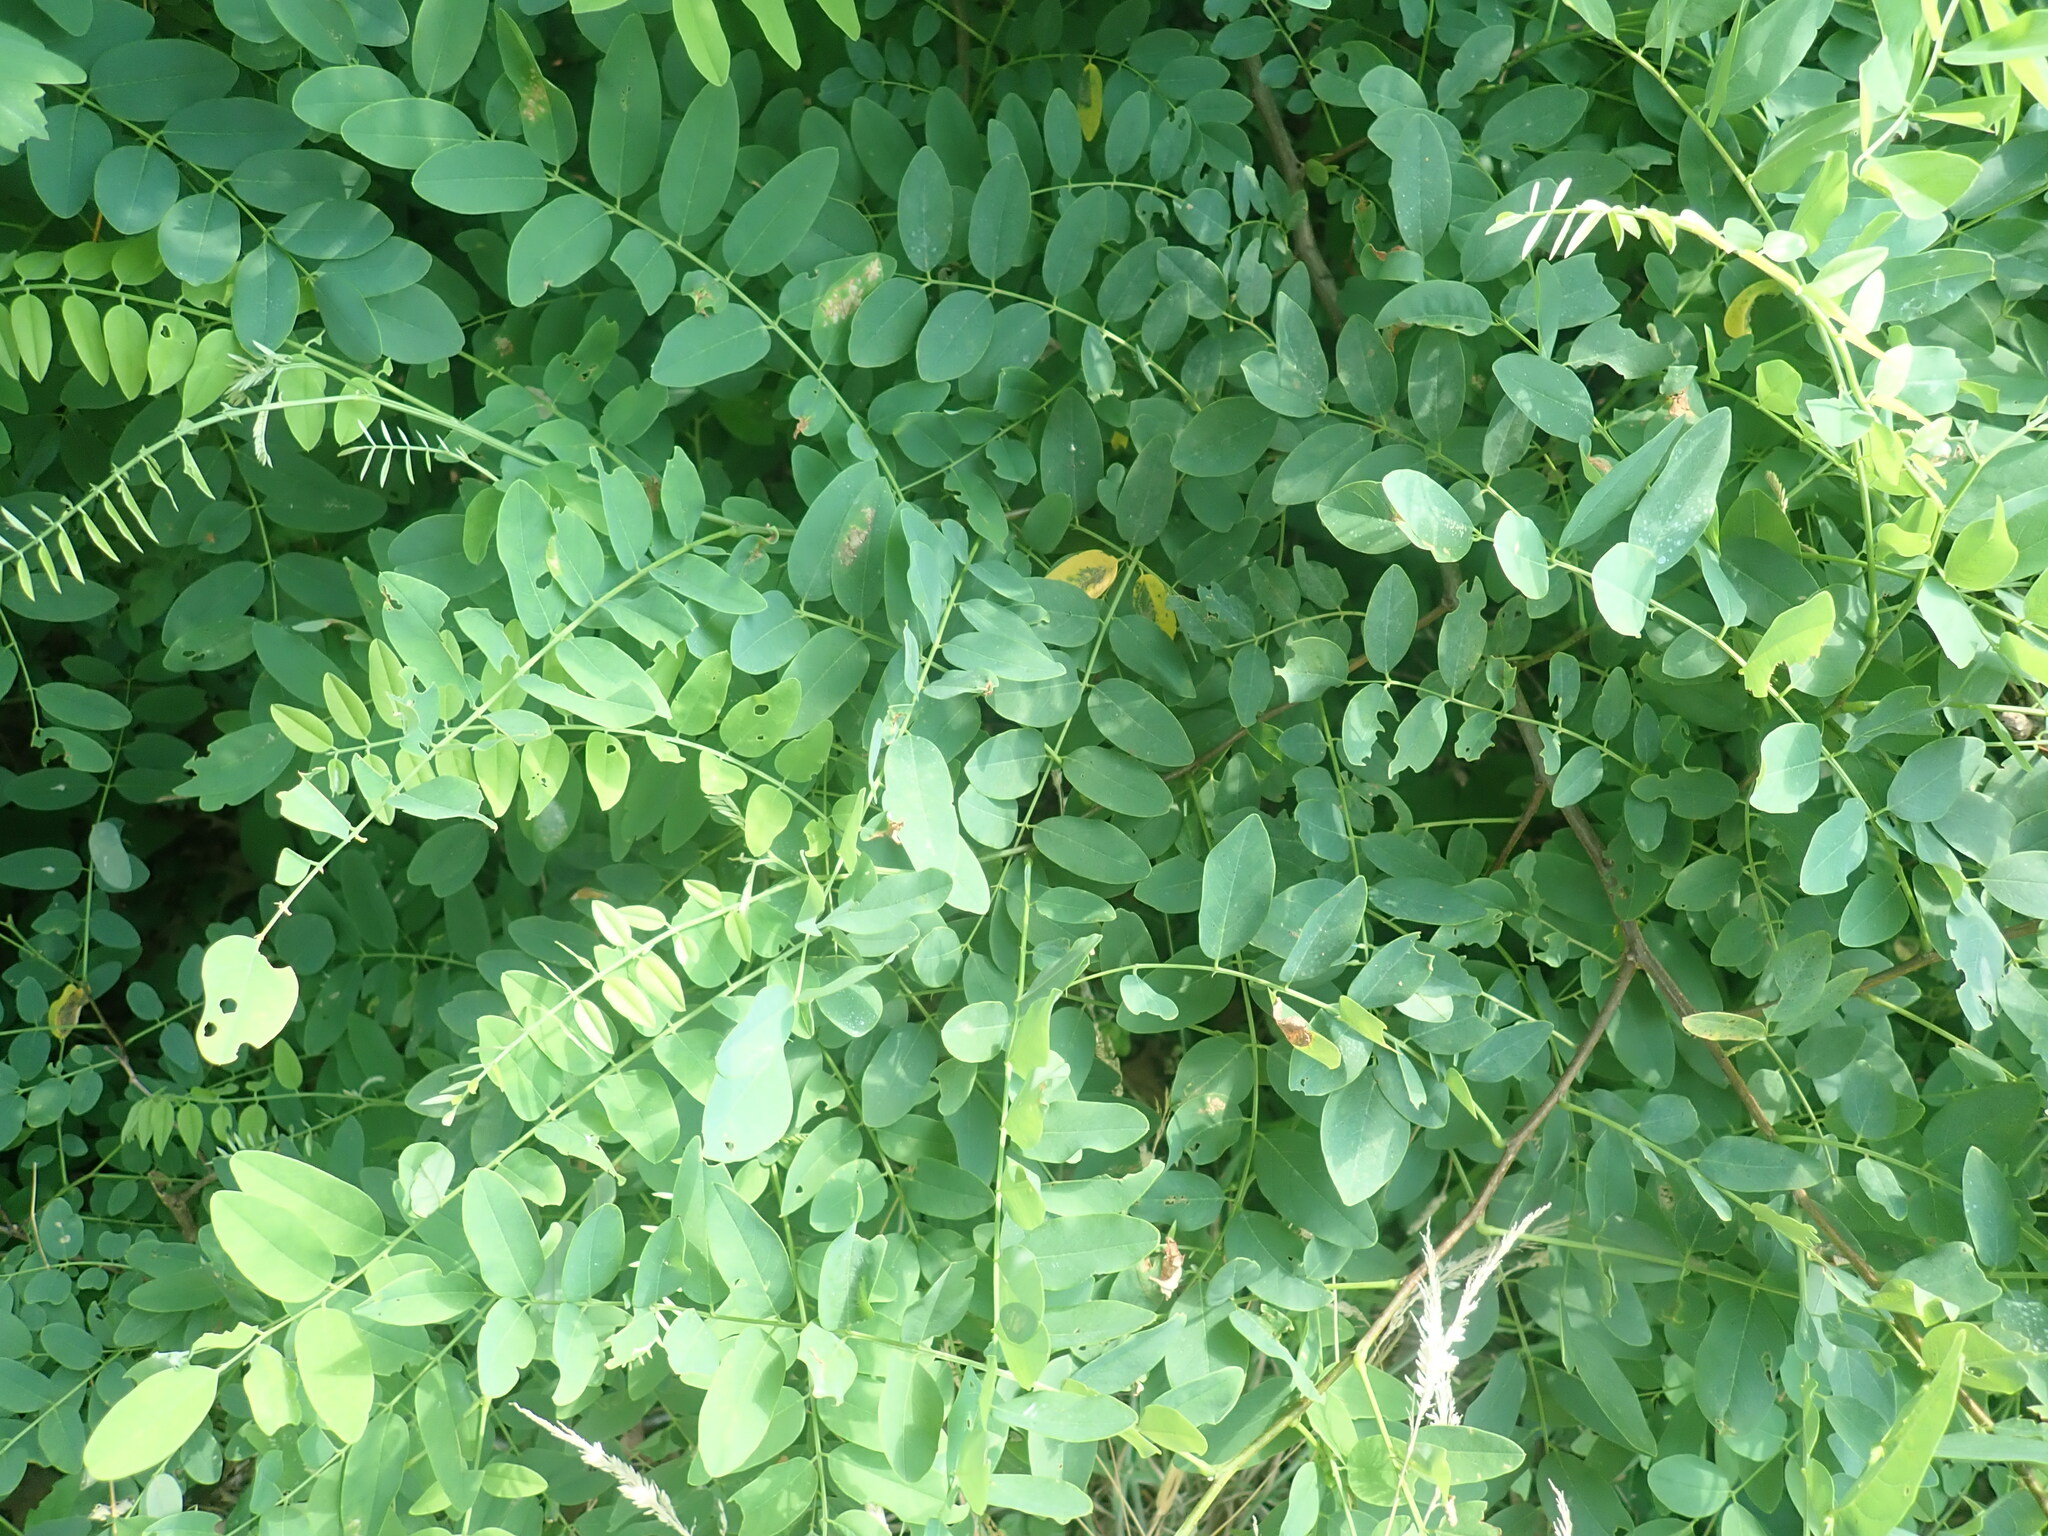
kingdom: Plantae
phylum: Tracheophyta
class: Magnoliopsida
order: Fabales
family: Fabaceae
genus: Robinia
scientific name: Robinia pseudoacacia
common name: Black locust
